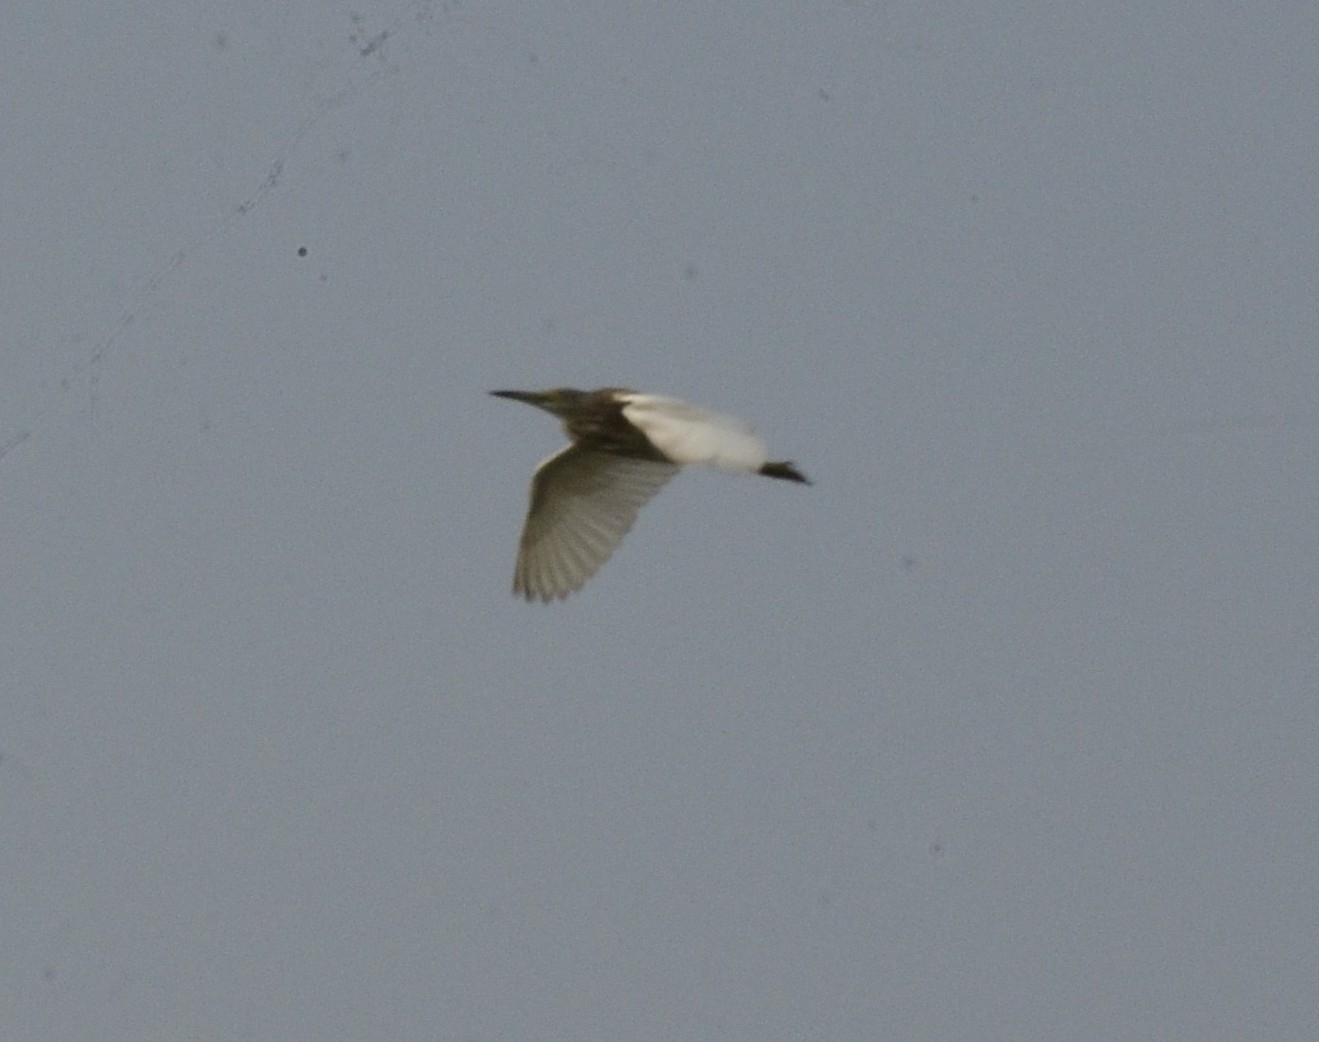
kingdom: Animalia
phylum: Chordata
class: Aves
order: Pelecaniformes
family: Ardeidae
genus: Ardeola
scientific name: Ardeola grayii
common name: Indian pond heron
